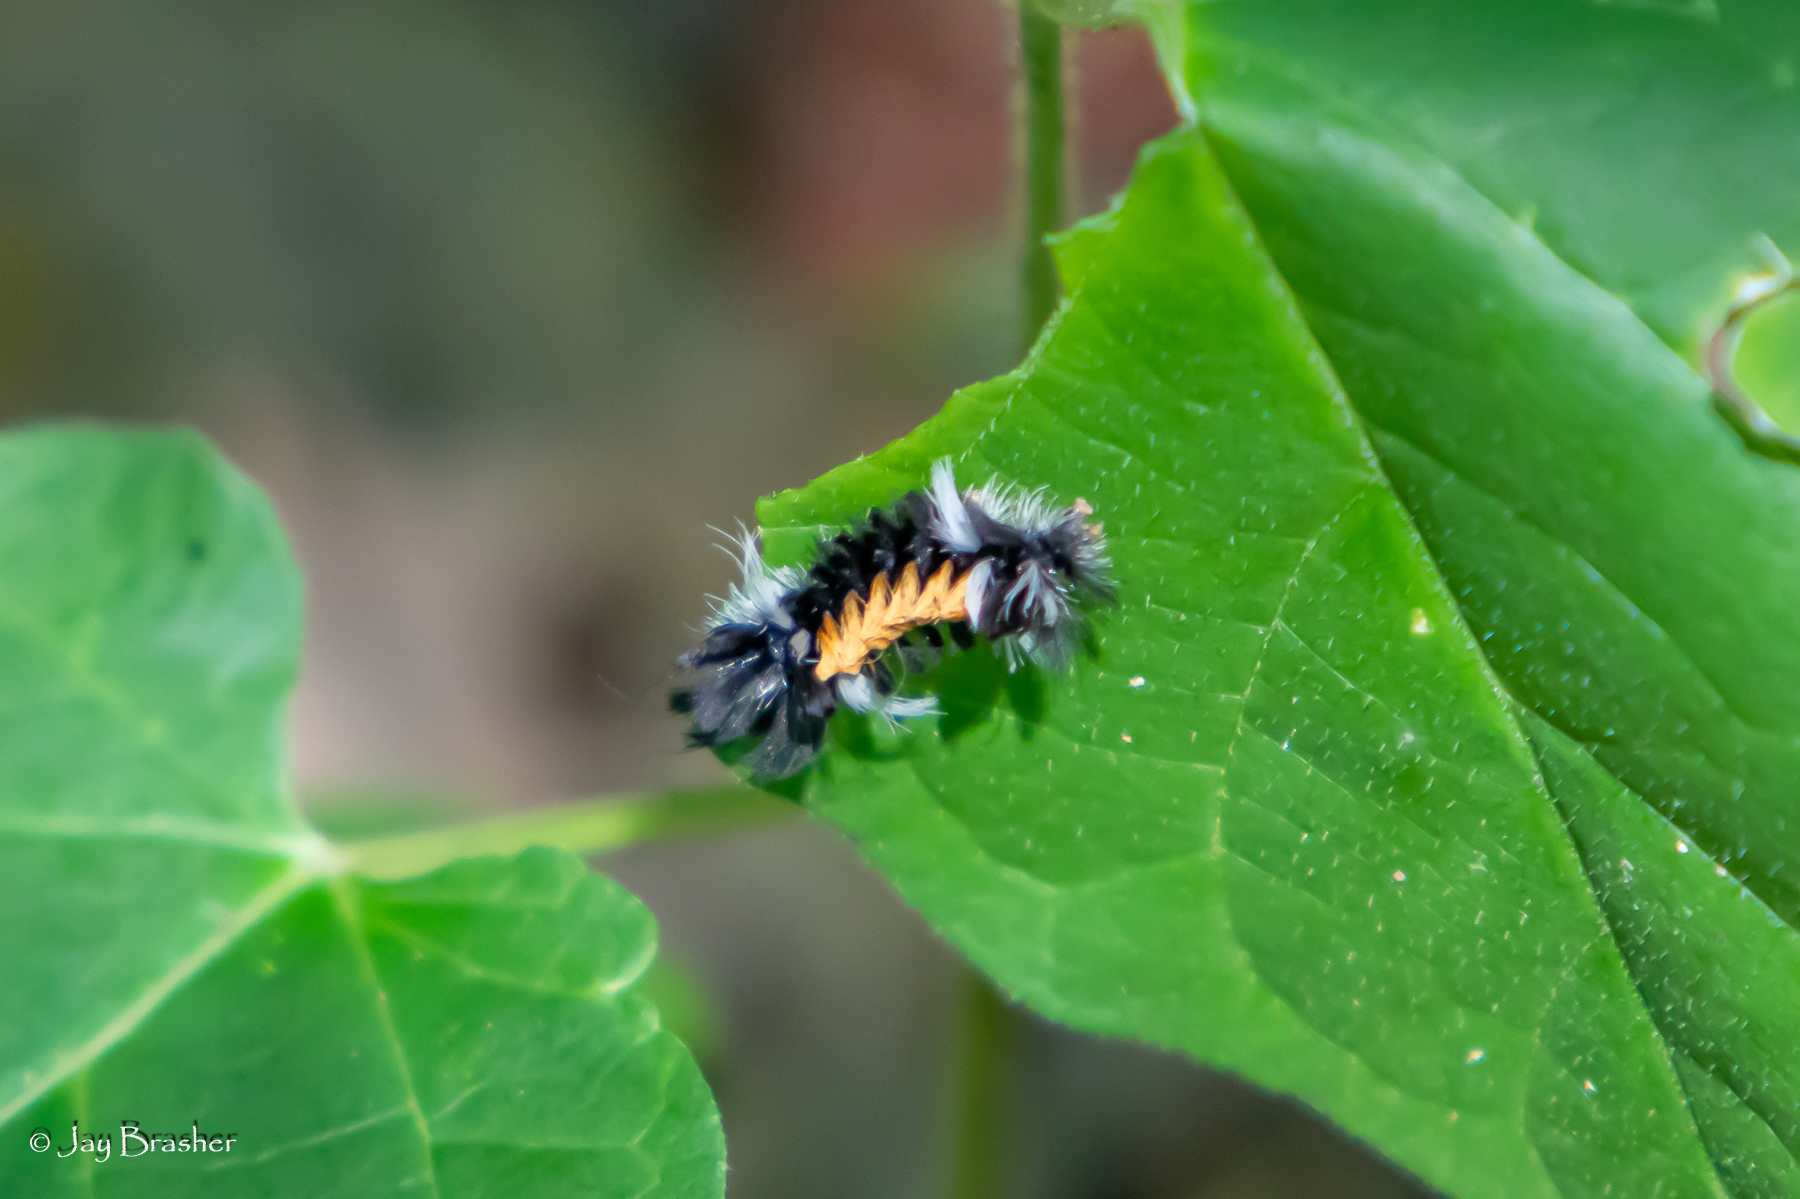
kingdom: Animalia
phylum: Arthropoda
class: Insecta
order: Lepidoptera
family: Erebidae
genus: Euchaetes
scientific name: Euchaetes egle
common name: Milkweed tussock moth
